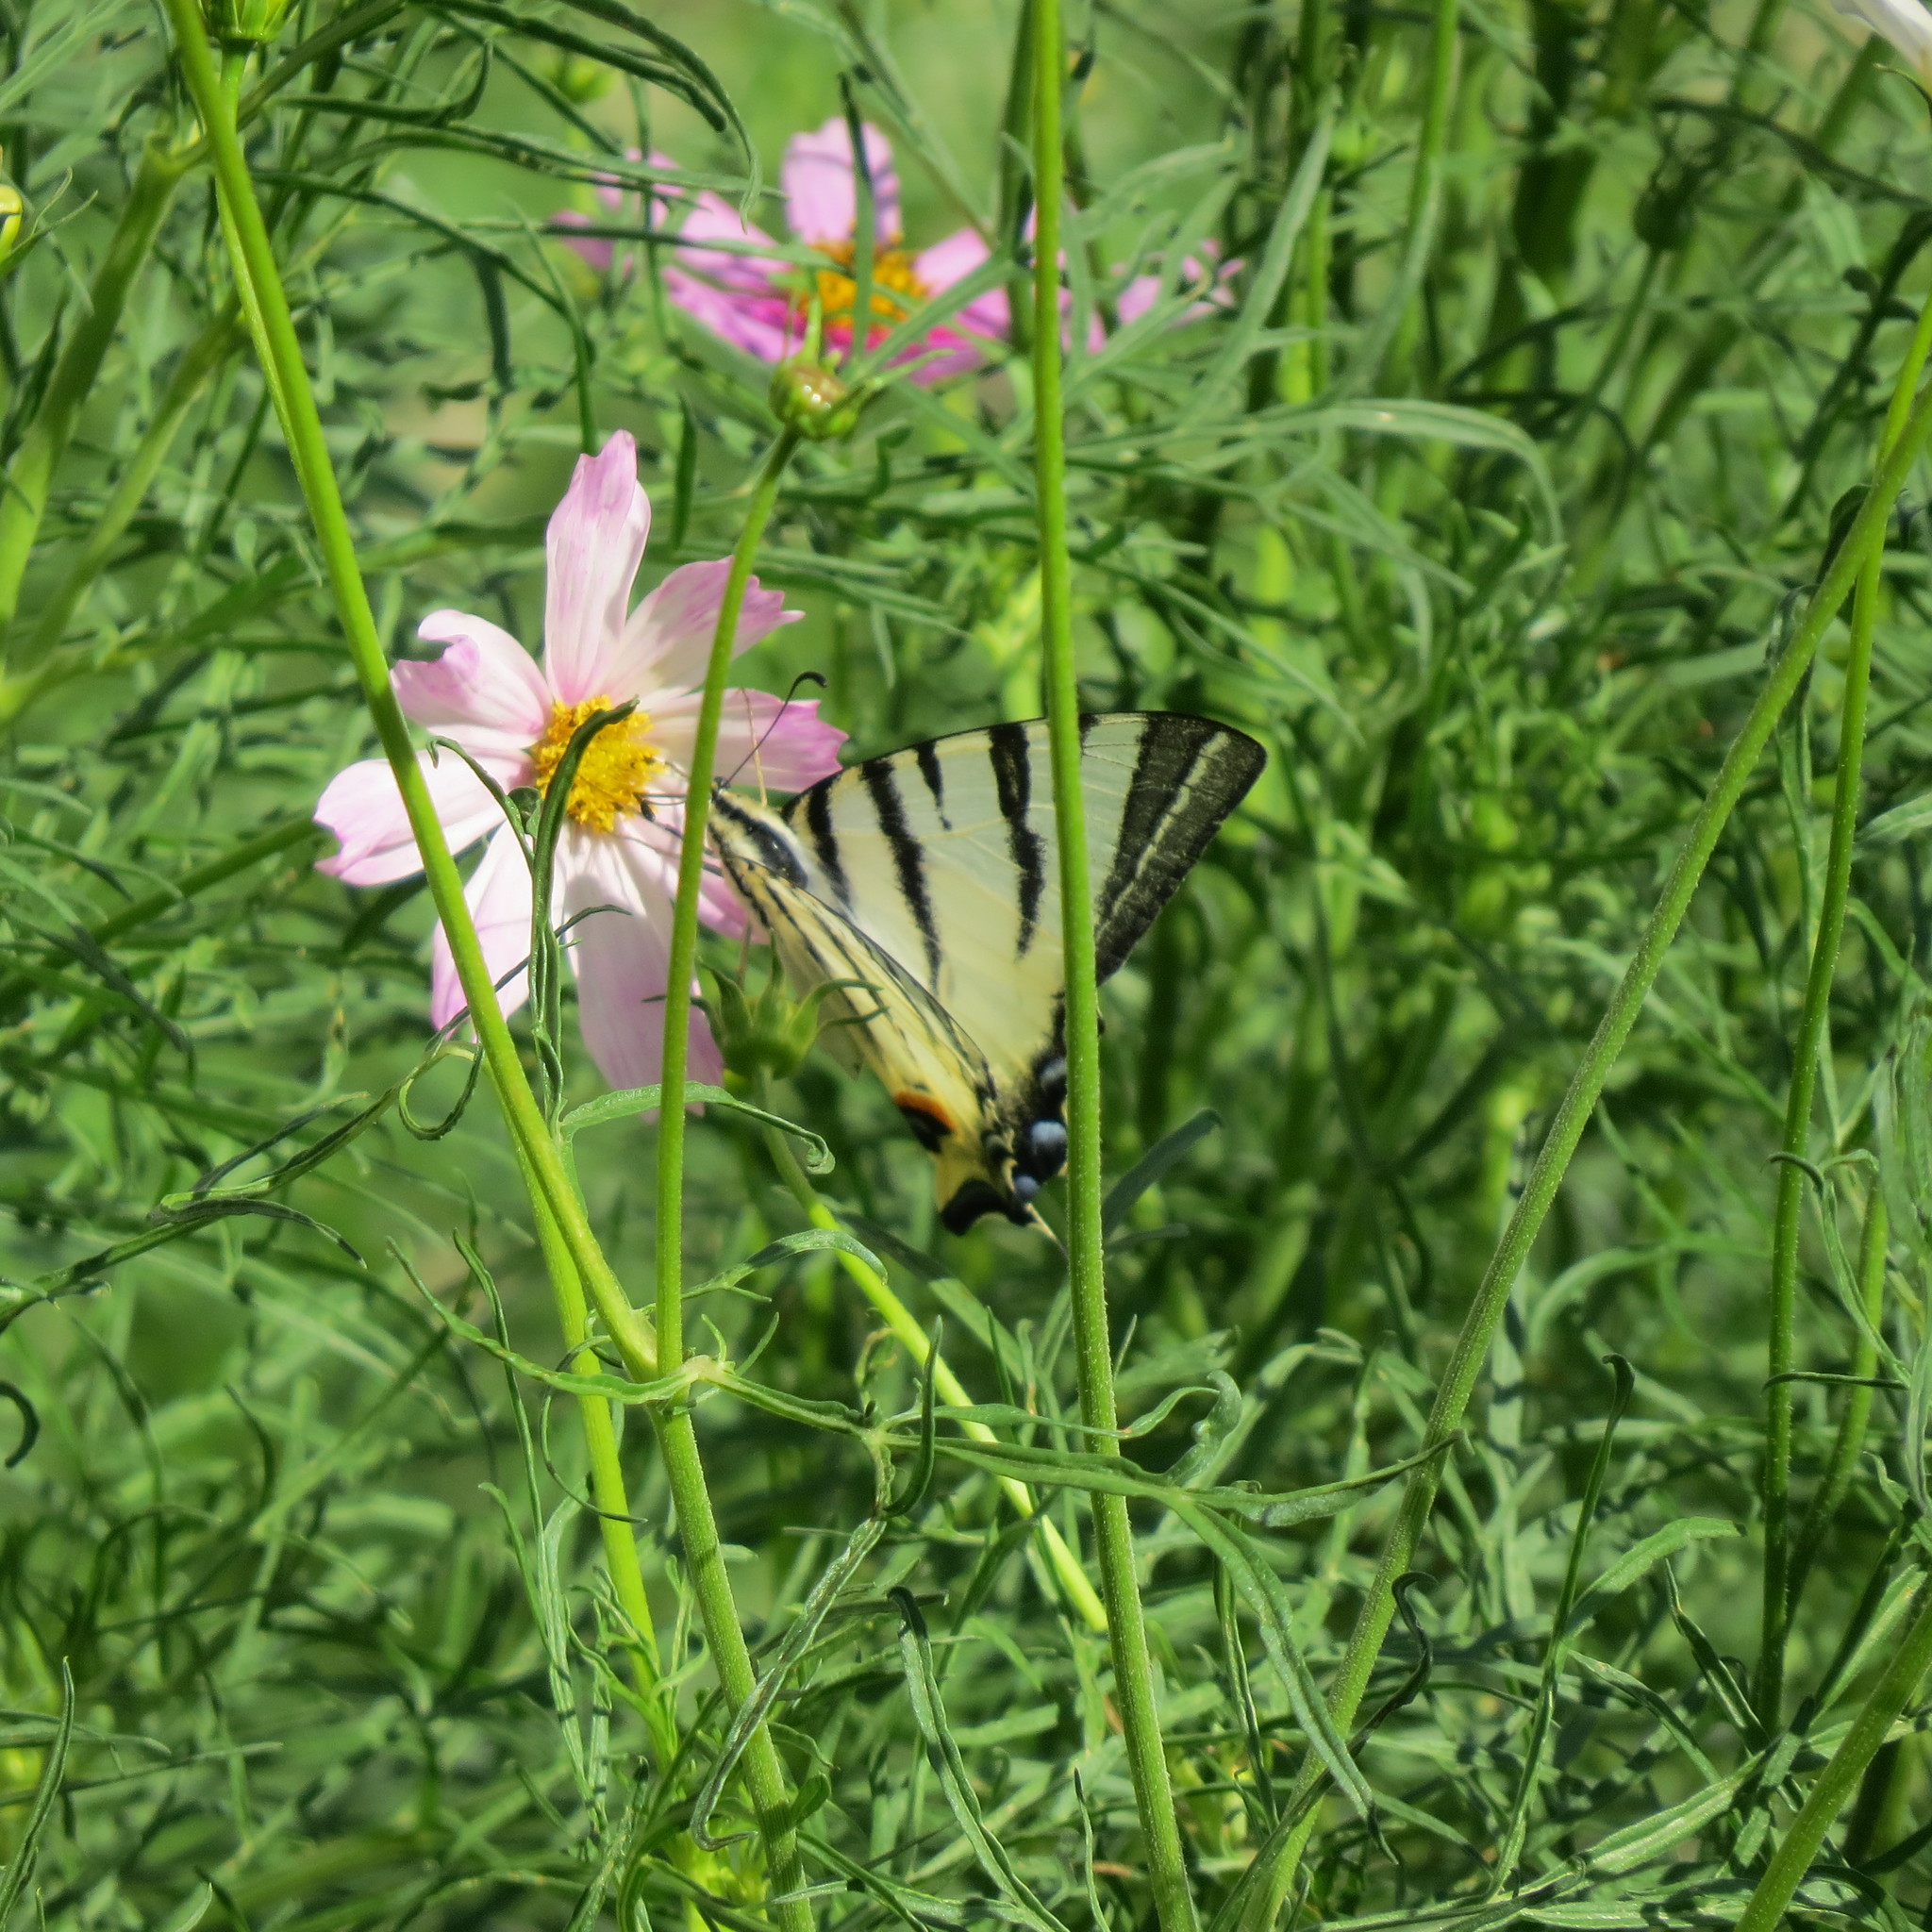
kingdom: Animalia
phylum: Arthropoda
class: Insecta
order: Lepidoptera
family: Papilionidae
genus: Iphiclides
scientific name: Iphiclides podalirius
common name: Scarce swallowtail
